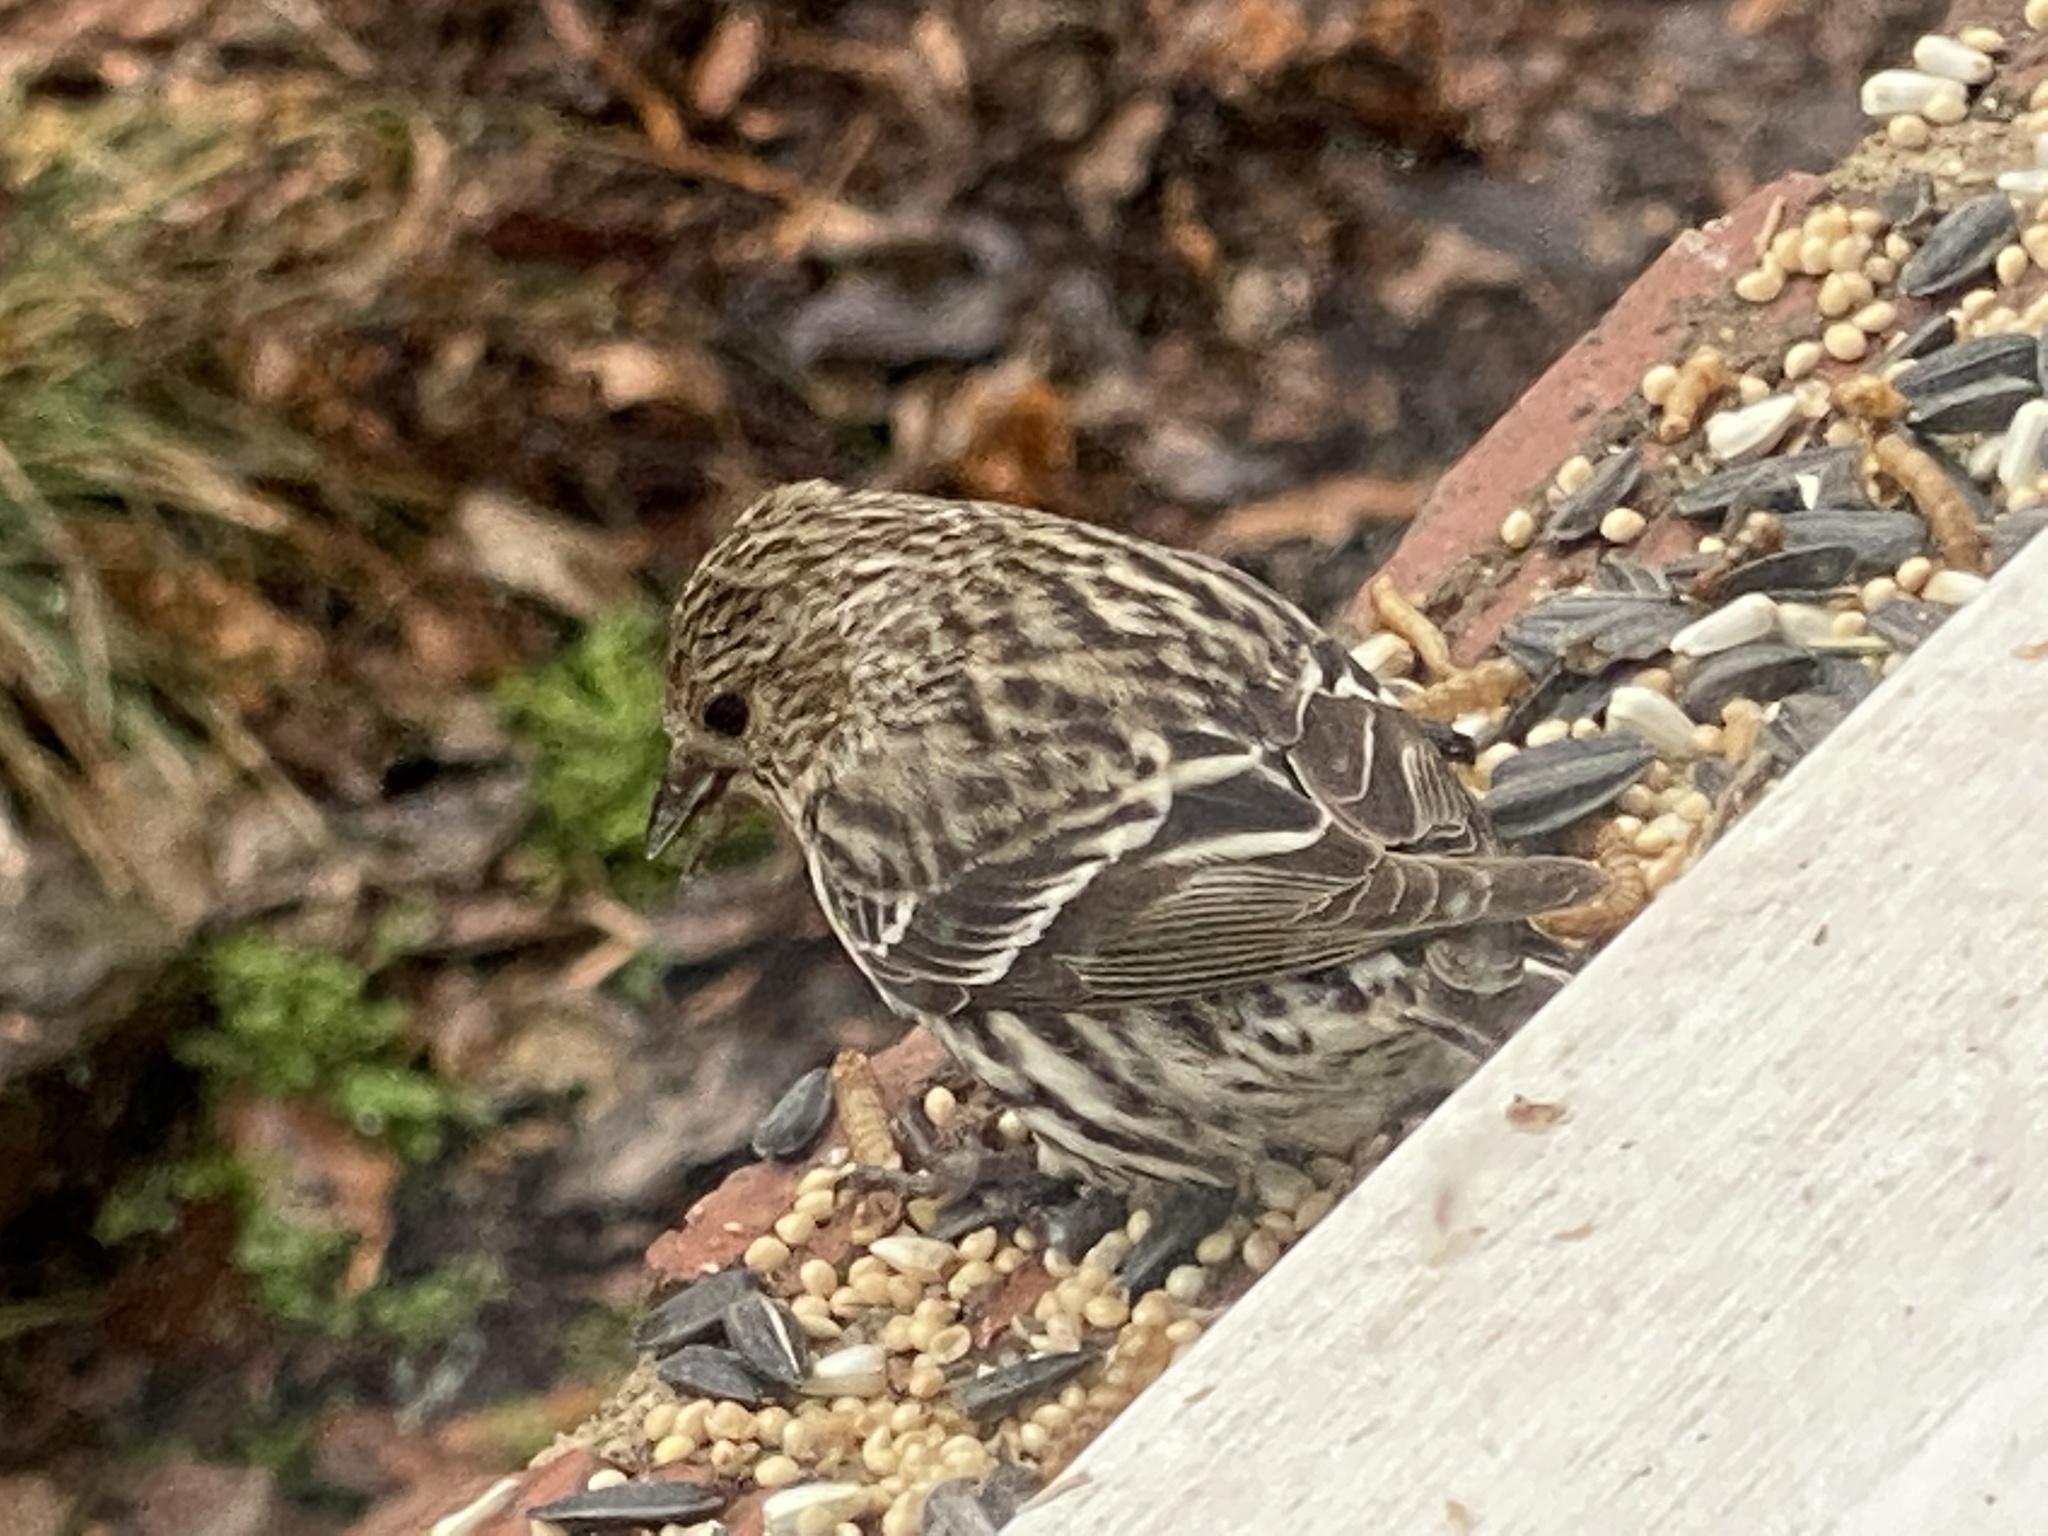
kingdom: Animalia
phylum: Chordata
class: Aves
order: Passeriformes
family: Fringillidae
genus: Spinus
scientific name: Spinus pinus
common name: Pine siskin
